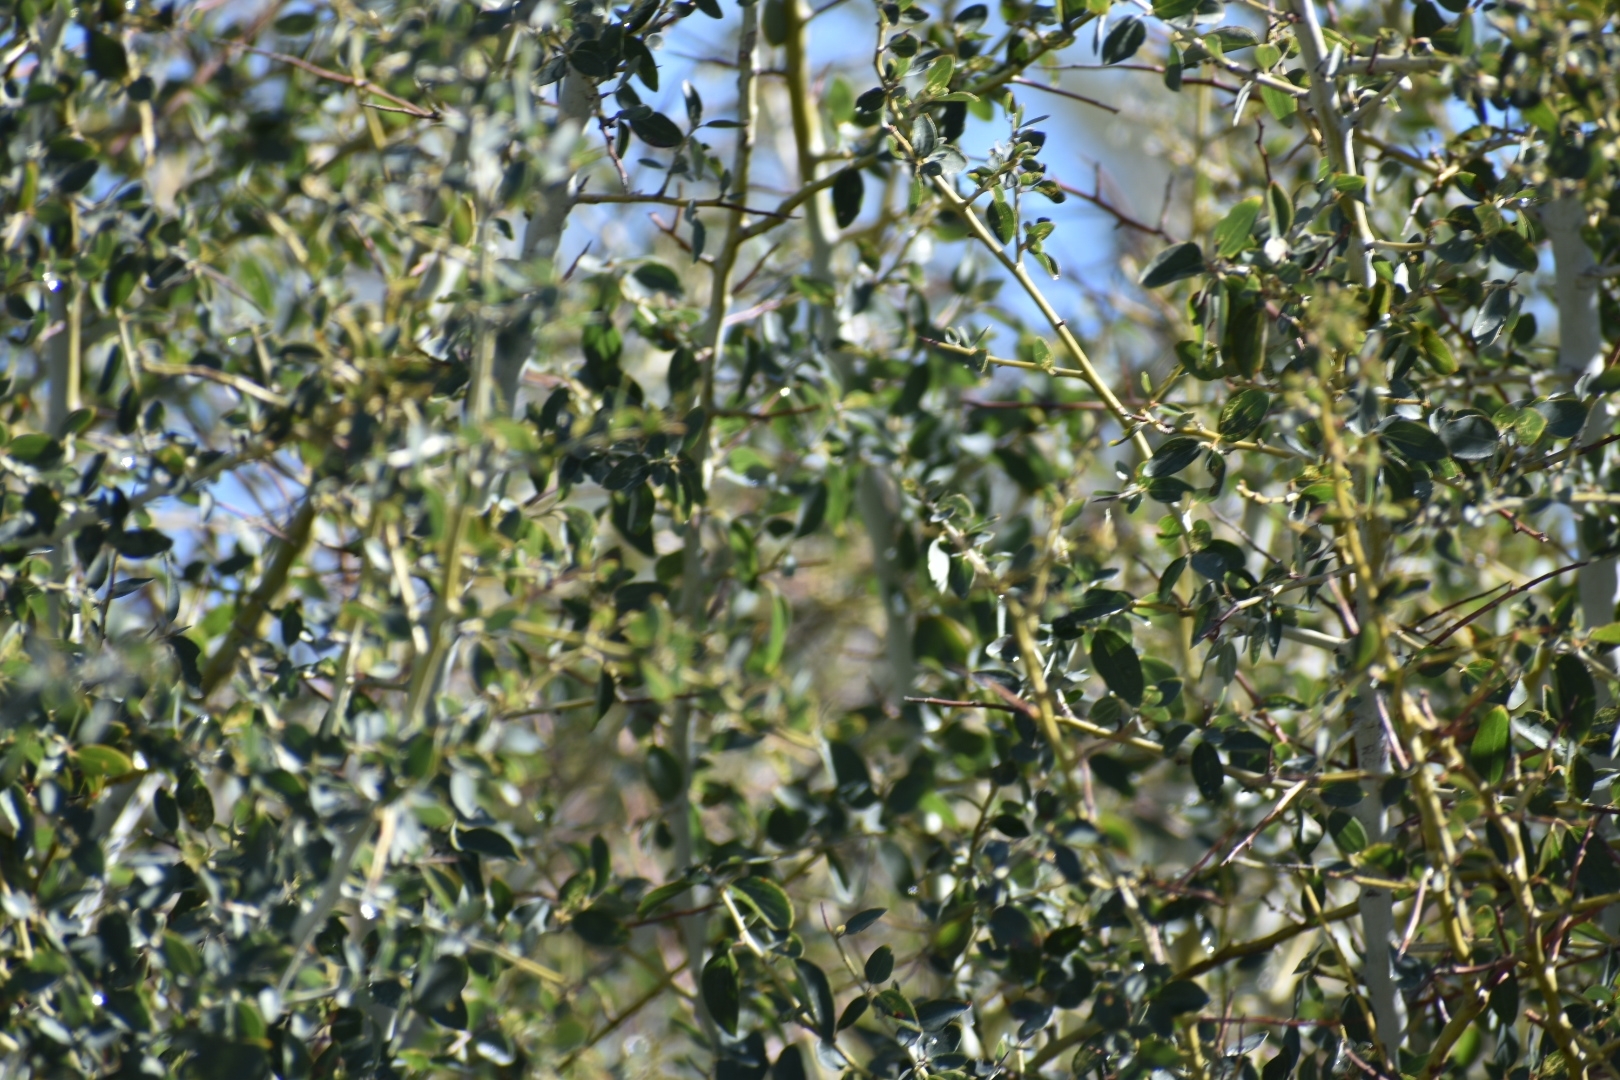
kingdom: Plantae
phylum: Tracheophyta
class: Magnoliopsida
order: Rosales
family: Rhamnaceae
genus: Ceanothus
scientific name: Ceanothus leucodermis
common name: Chaparral whitethorn
